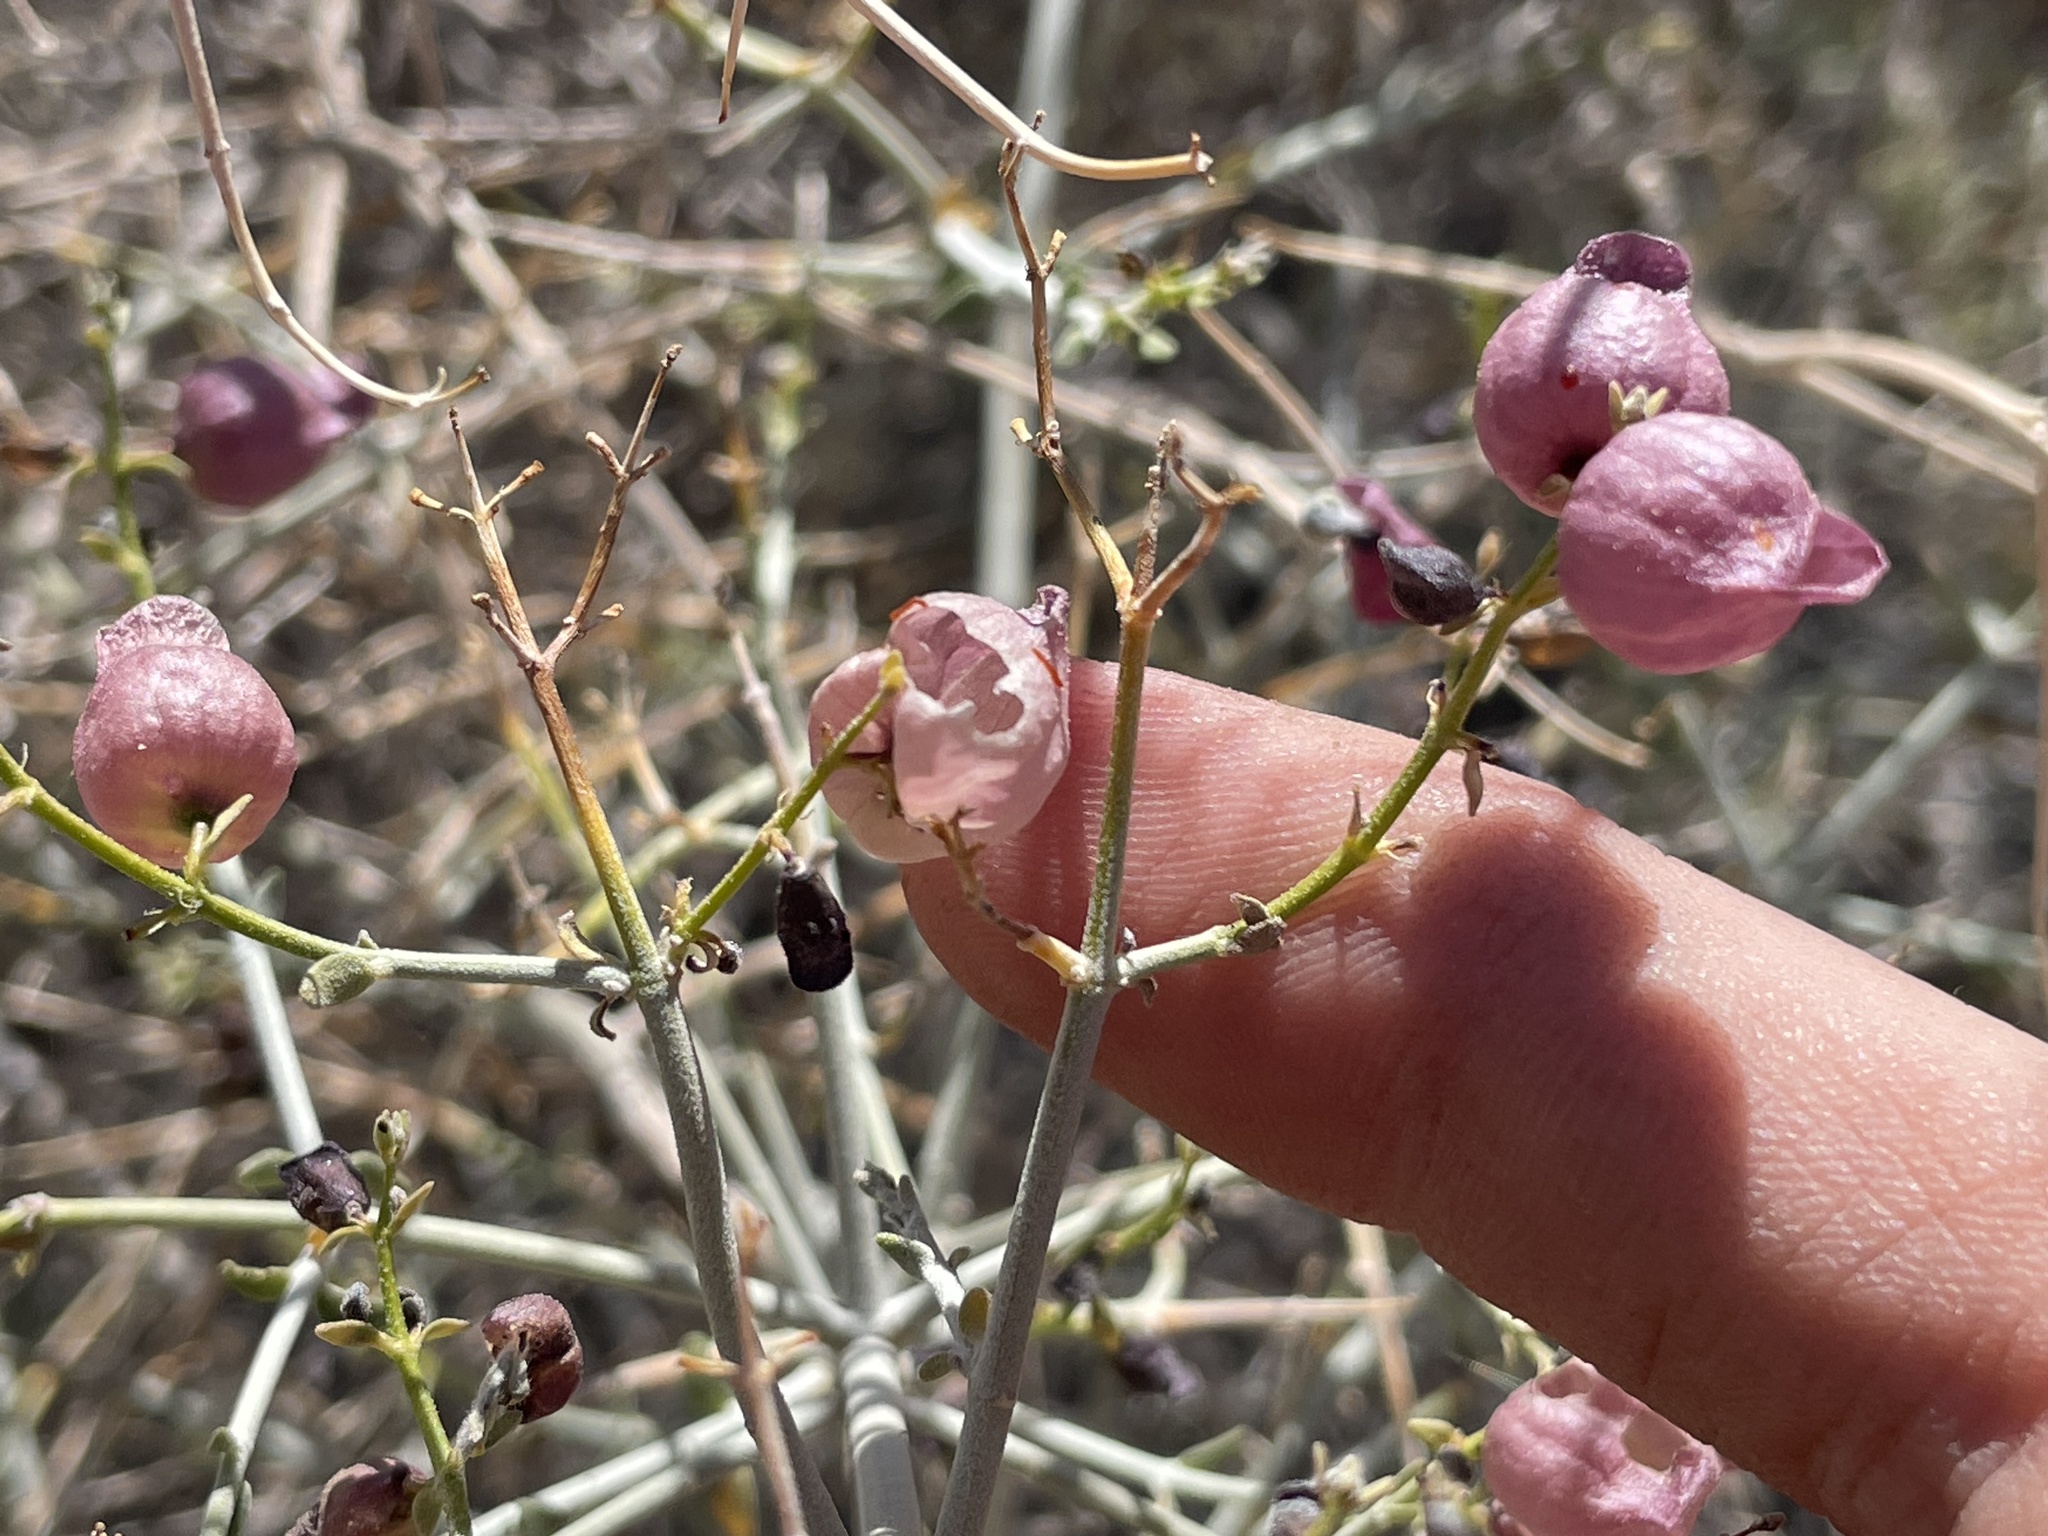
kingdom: Plantae
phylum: Tracheophyta
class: Magnoliopsida
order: Lamiales
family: Lamiaceae
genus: Scutellaria
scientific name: Scutellaria mexicana
